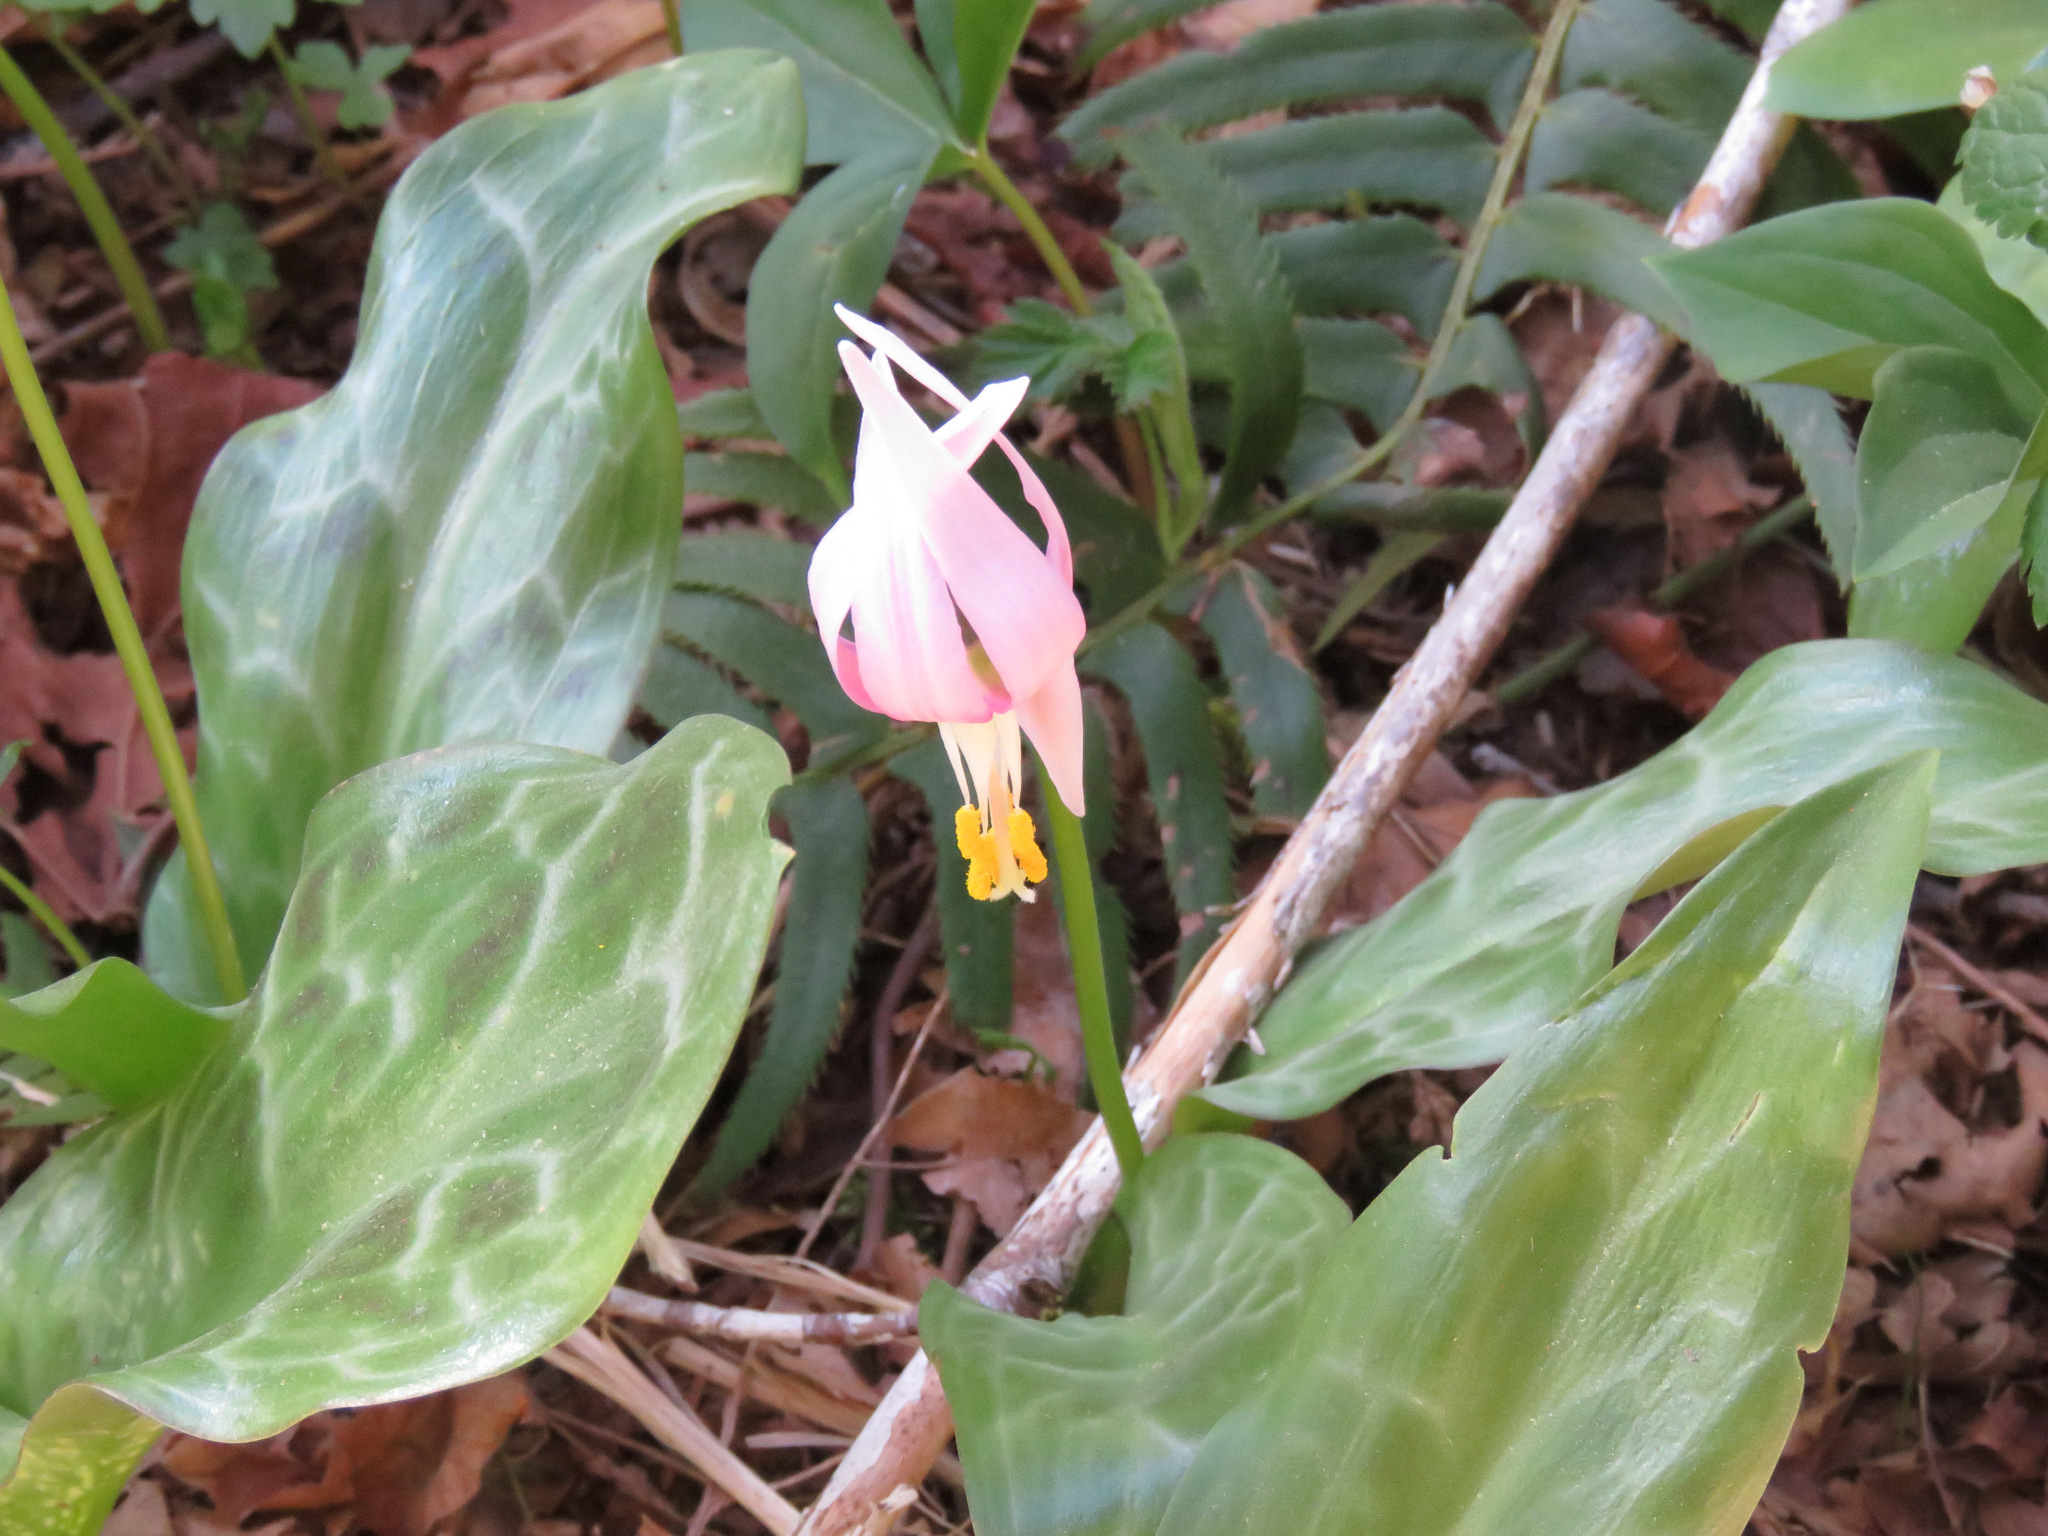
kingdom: Plantae
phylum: Tracheophyta
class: Liliopsida
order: Liliales
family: Liliaceae
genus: Erythronium
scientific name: Erythronium revolutum
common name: Pink fawn-lily
